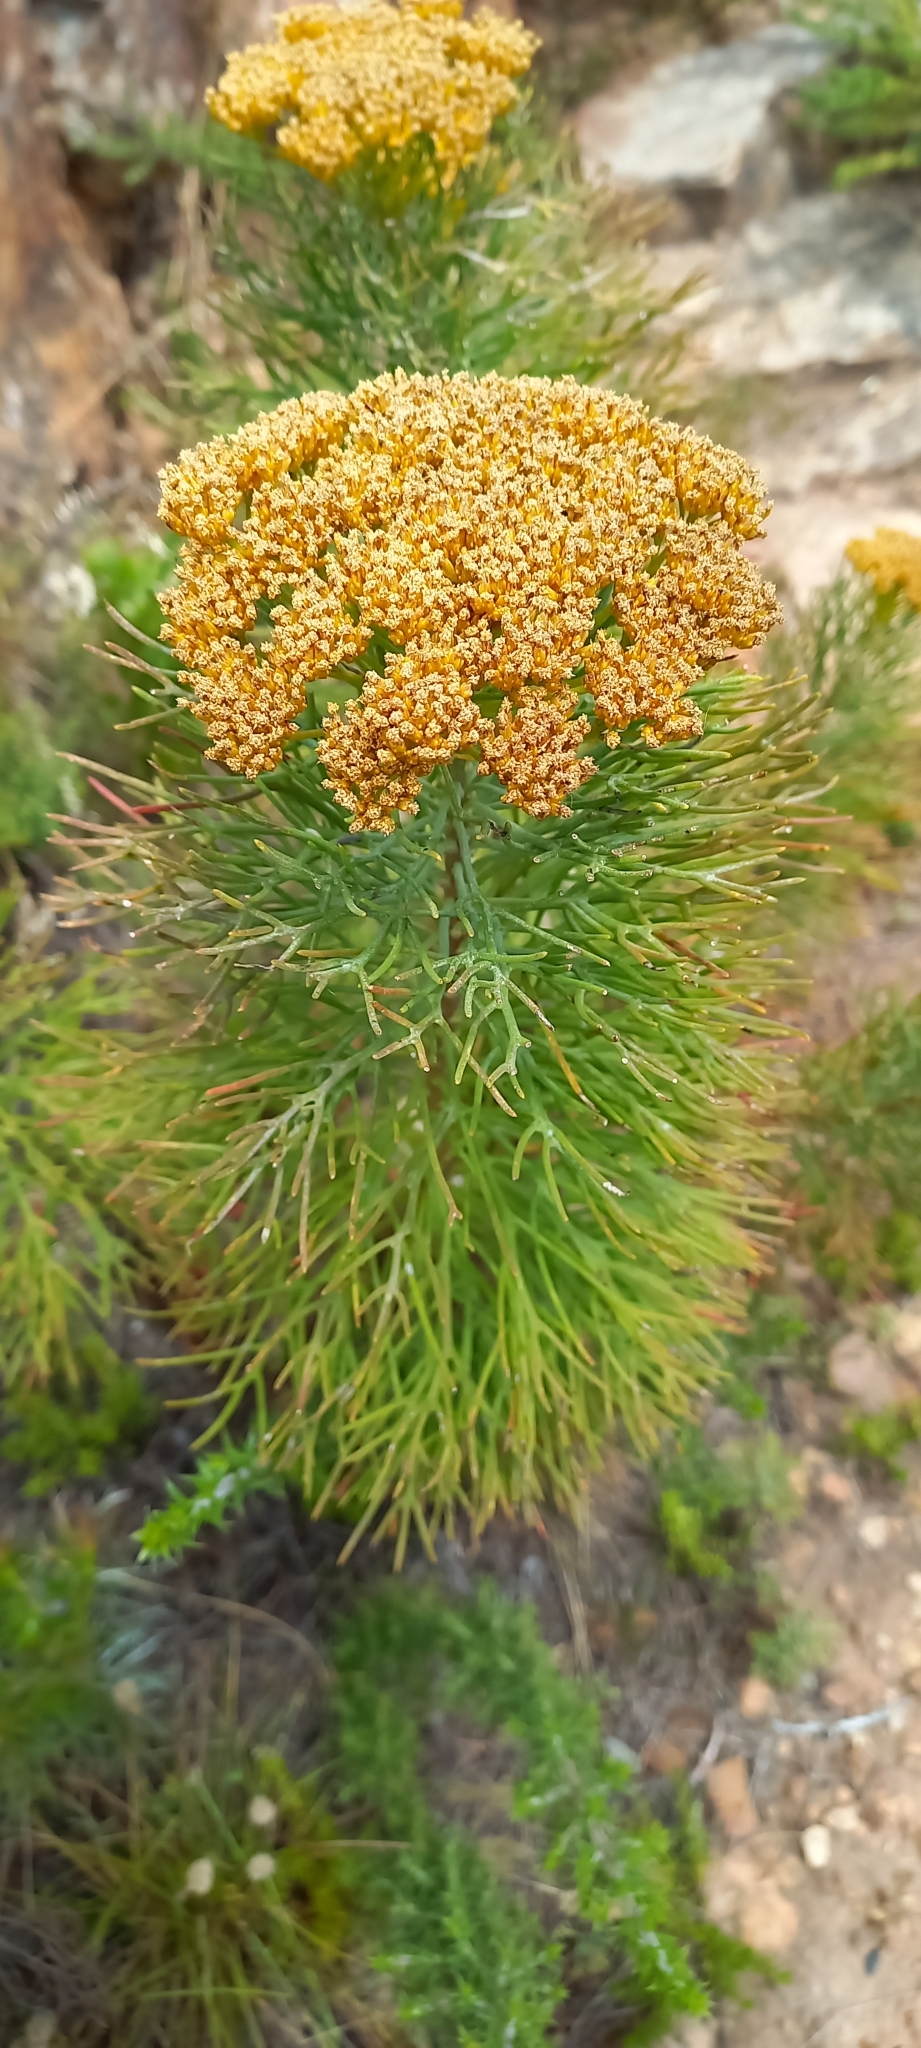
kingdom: Plantae
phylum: Tracheophyta
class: Magnoliopsida
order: Asterales
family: Asteraceae
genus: Hymenolepis
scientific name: Hymenolepis crithmifolia
